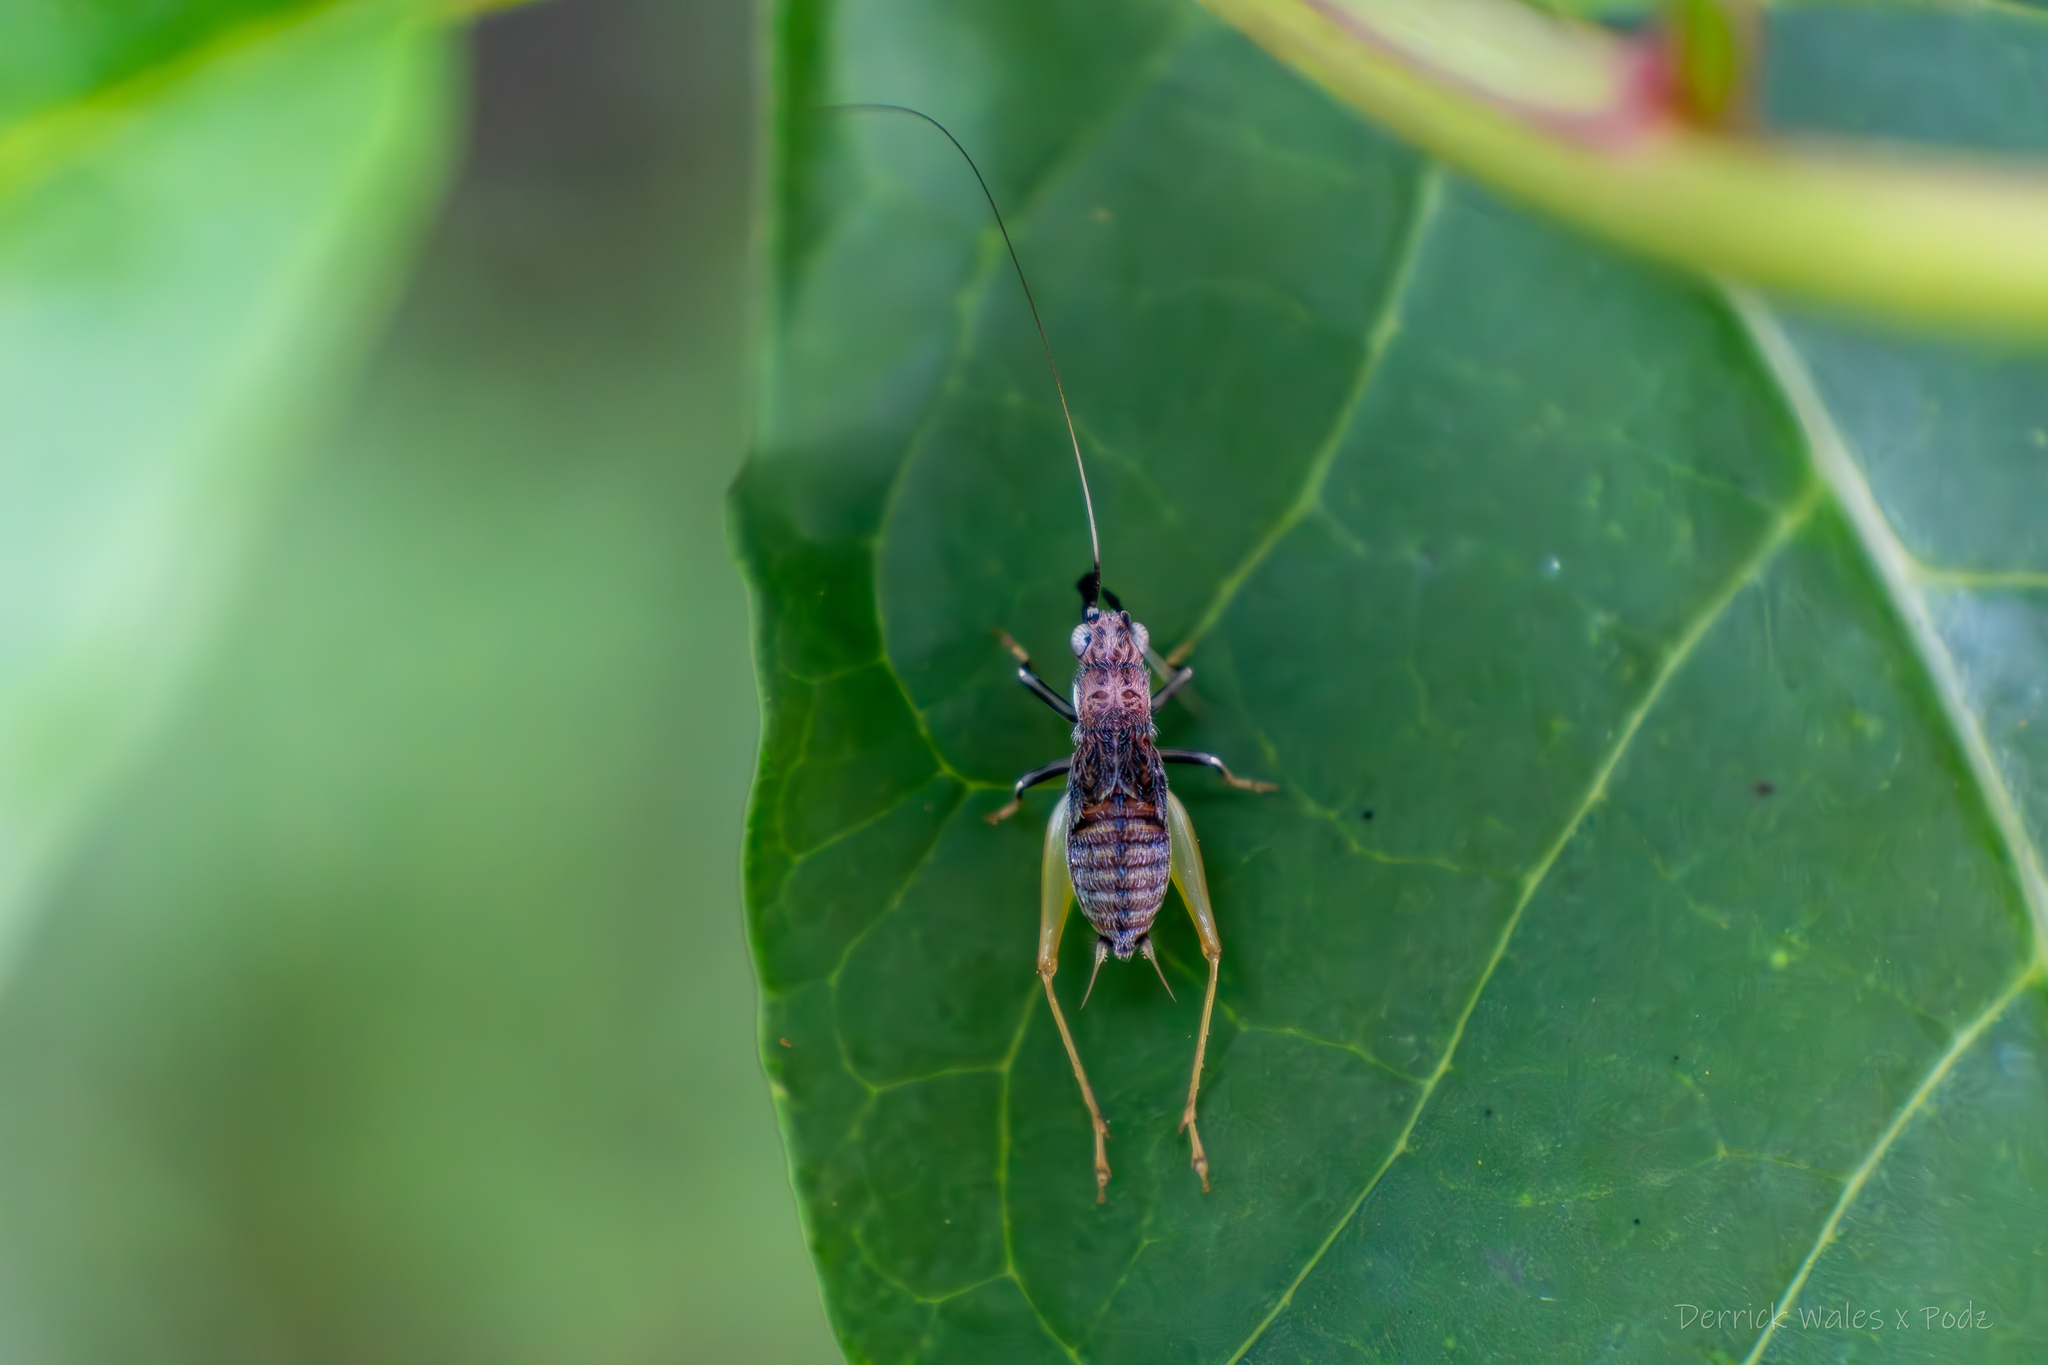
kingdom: Animalia
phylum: Arthropoda
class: Insecta
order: Orthoptera
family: Trigonidiidae
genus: Phyllopalpus
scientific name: Phyllopalpus pulchellus
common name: Handsome trig
